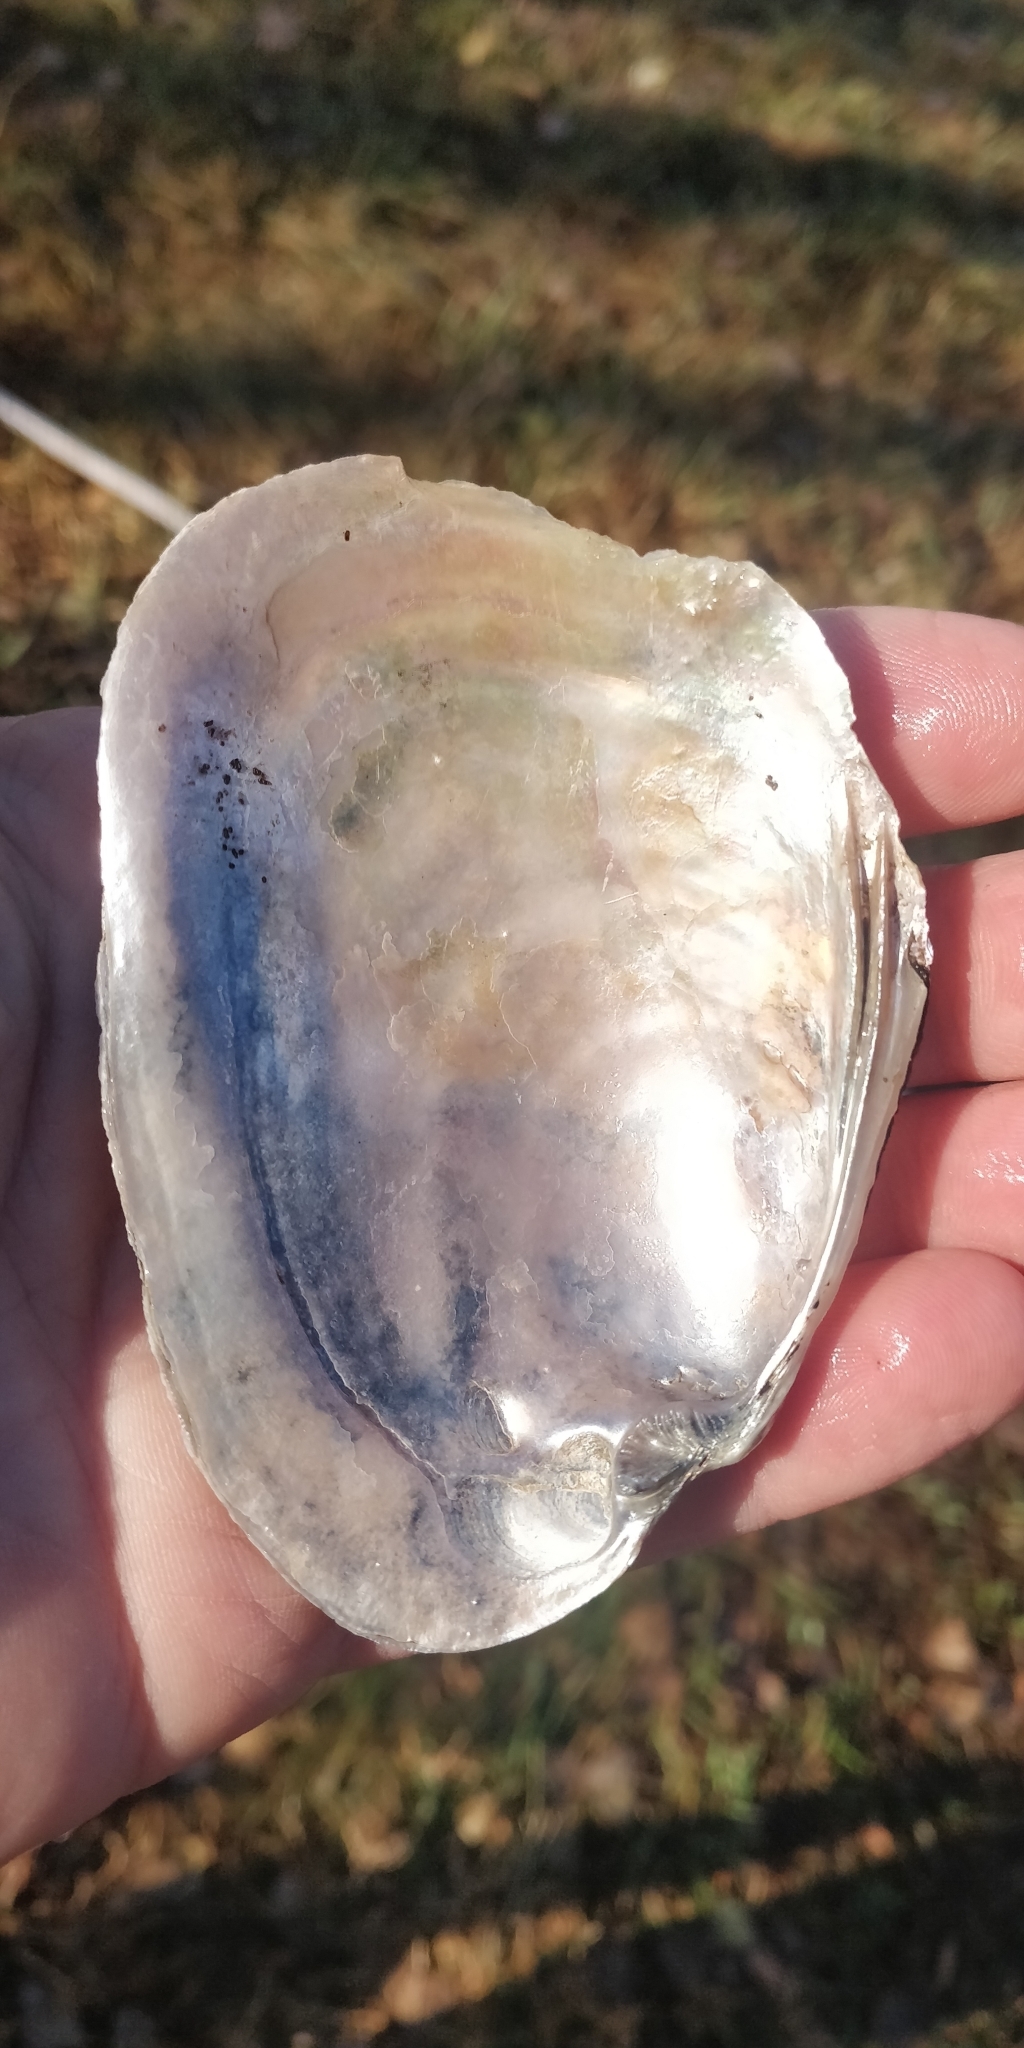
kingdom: Animalia
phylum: Mollusca
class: Bivalvia
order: Unionida
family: Unionidae
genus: Potamilus
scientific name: Potamilus alatus
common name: Pink heelsplitter
